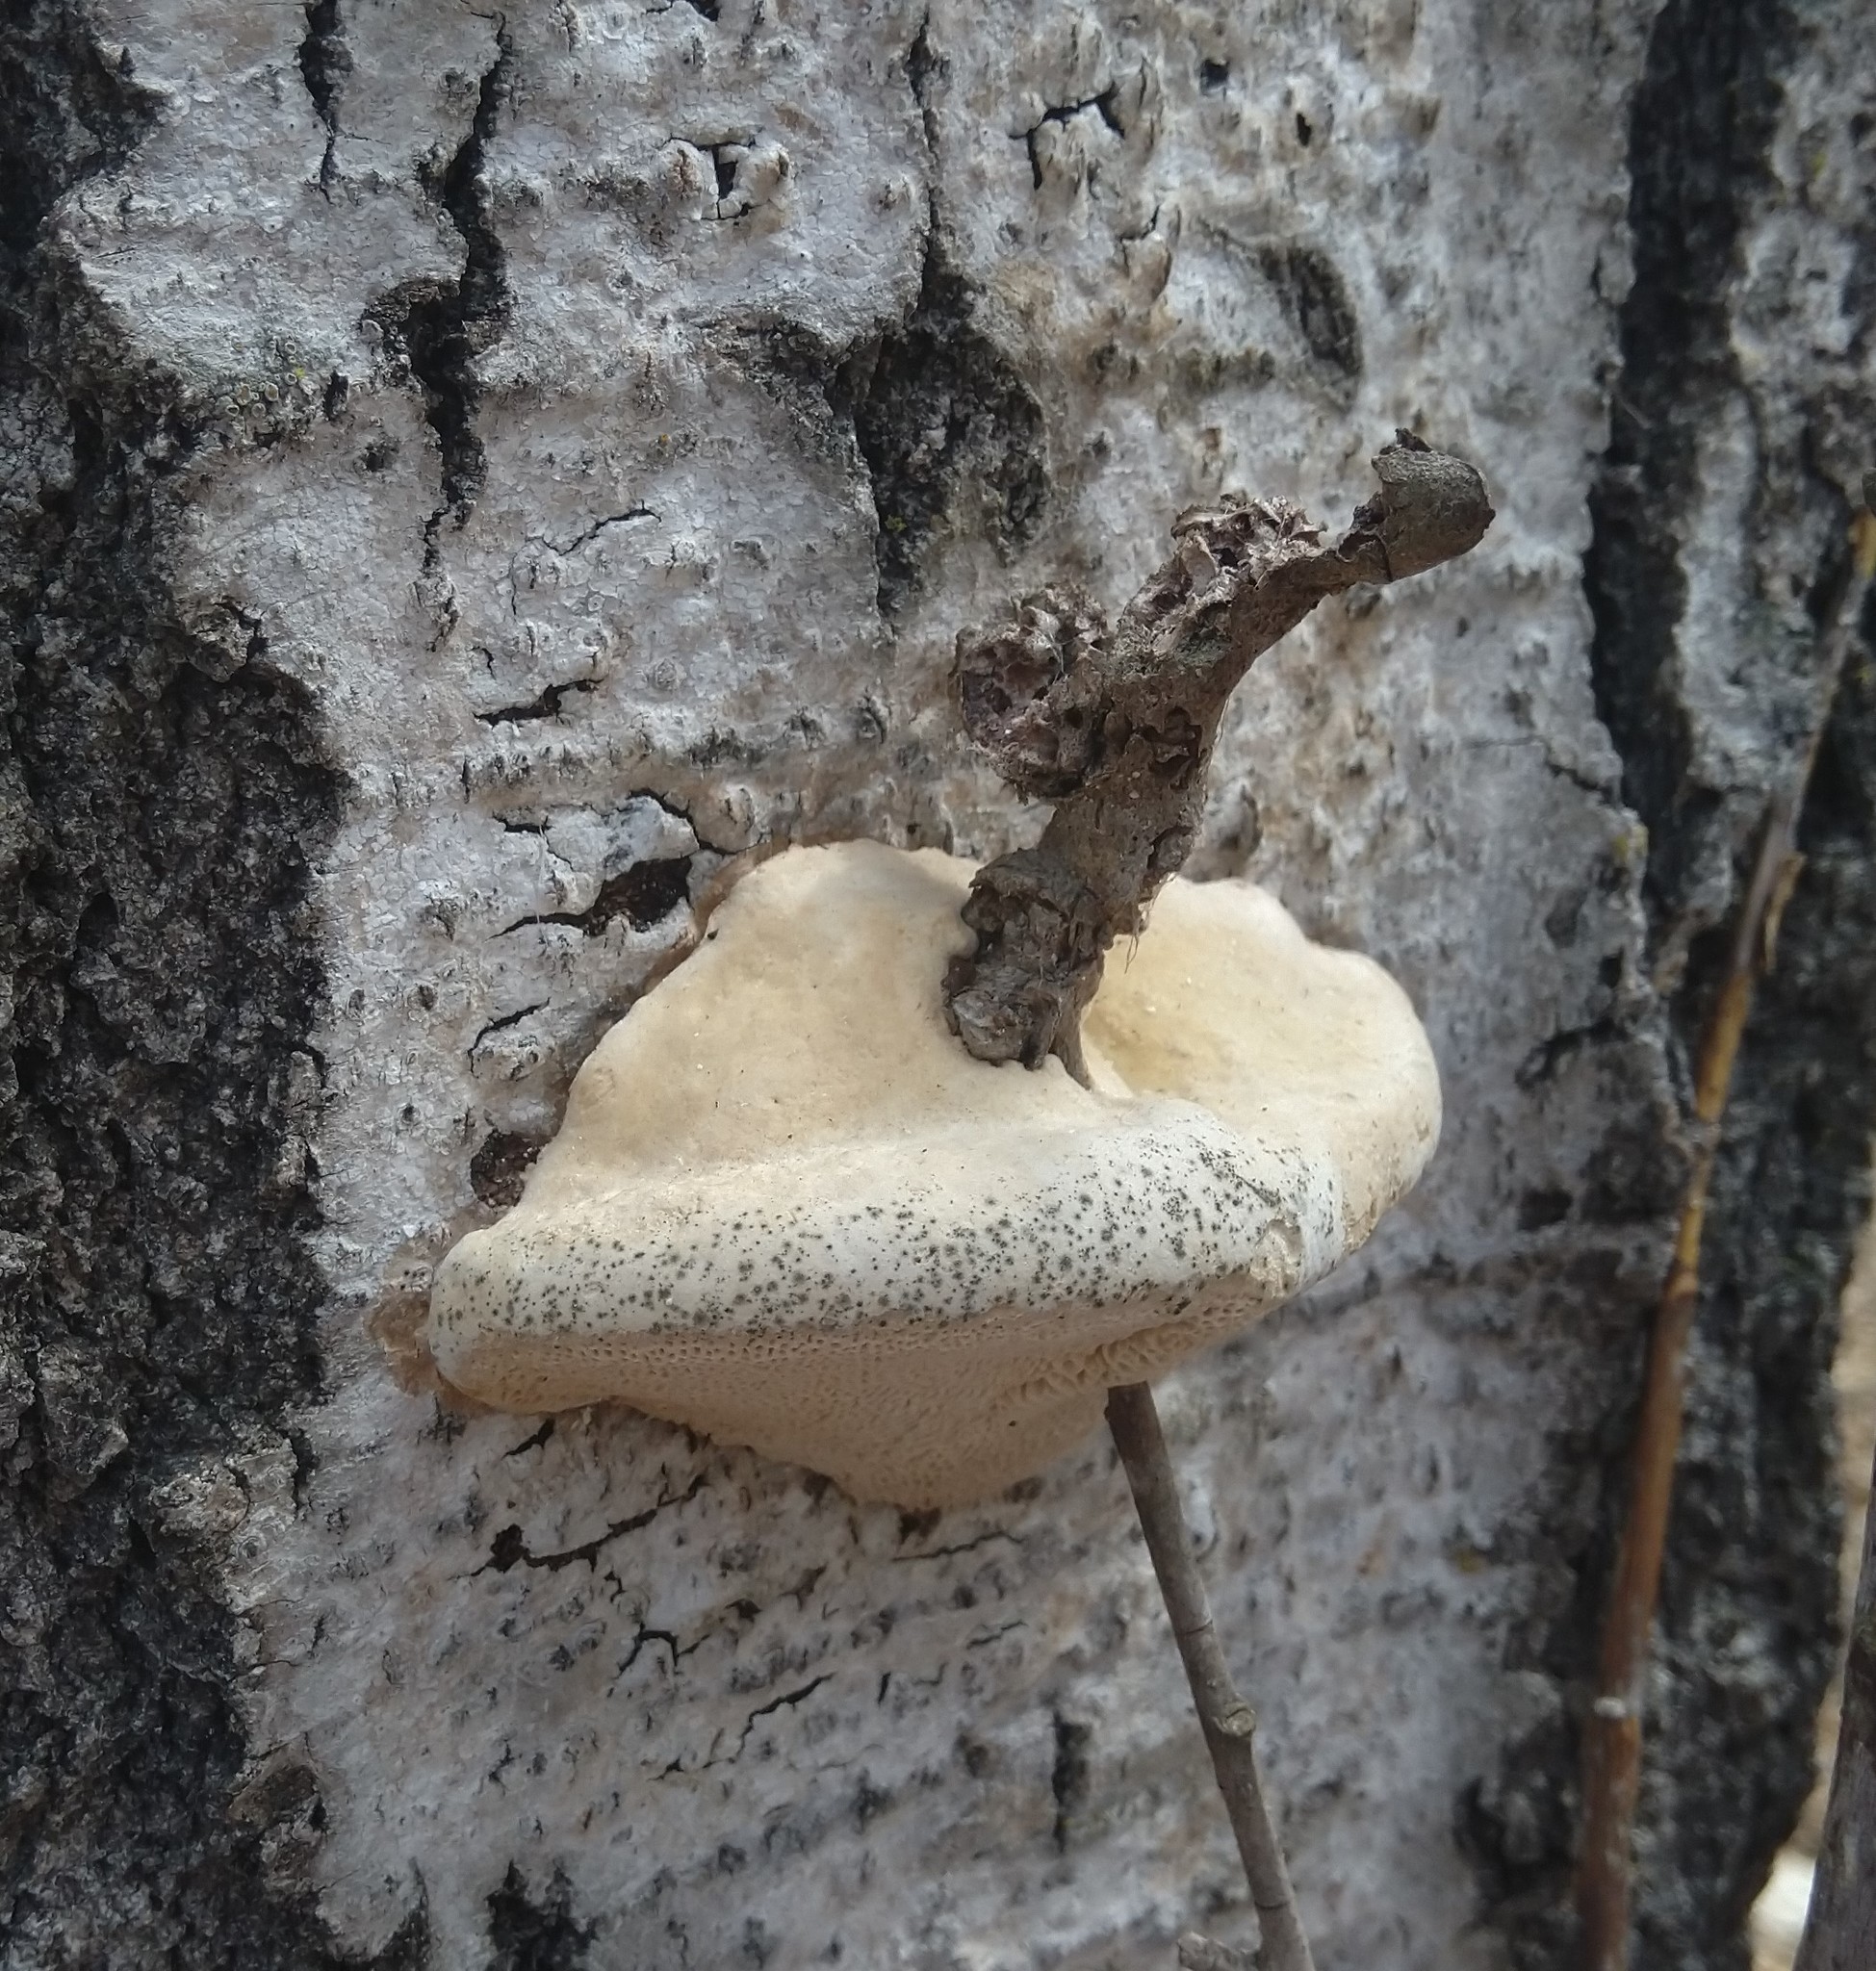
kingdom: Fungi
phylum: Basidiomycota
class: Agaricomycetes
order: Polyporales
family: Polyporaceae
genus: Trametes
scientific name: Trametes gibbosa
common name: Lumpy bracket
